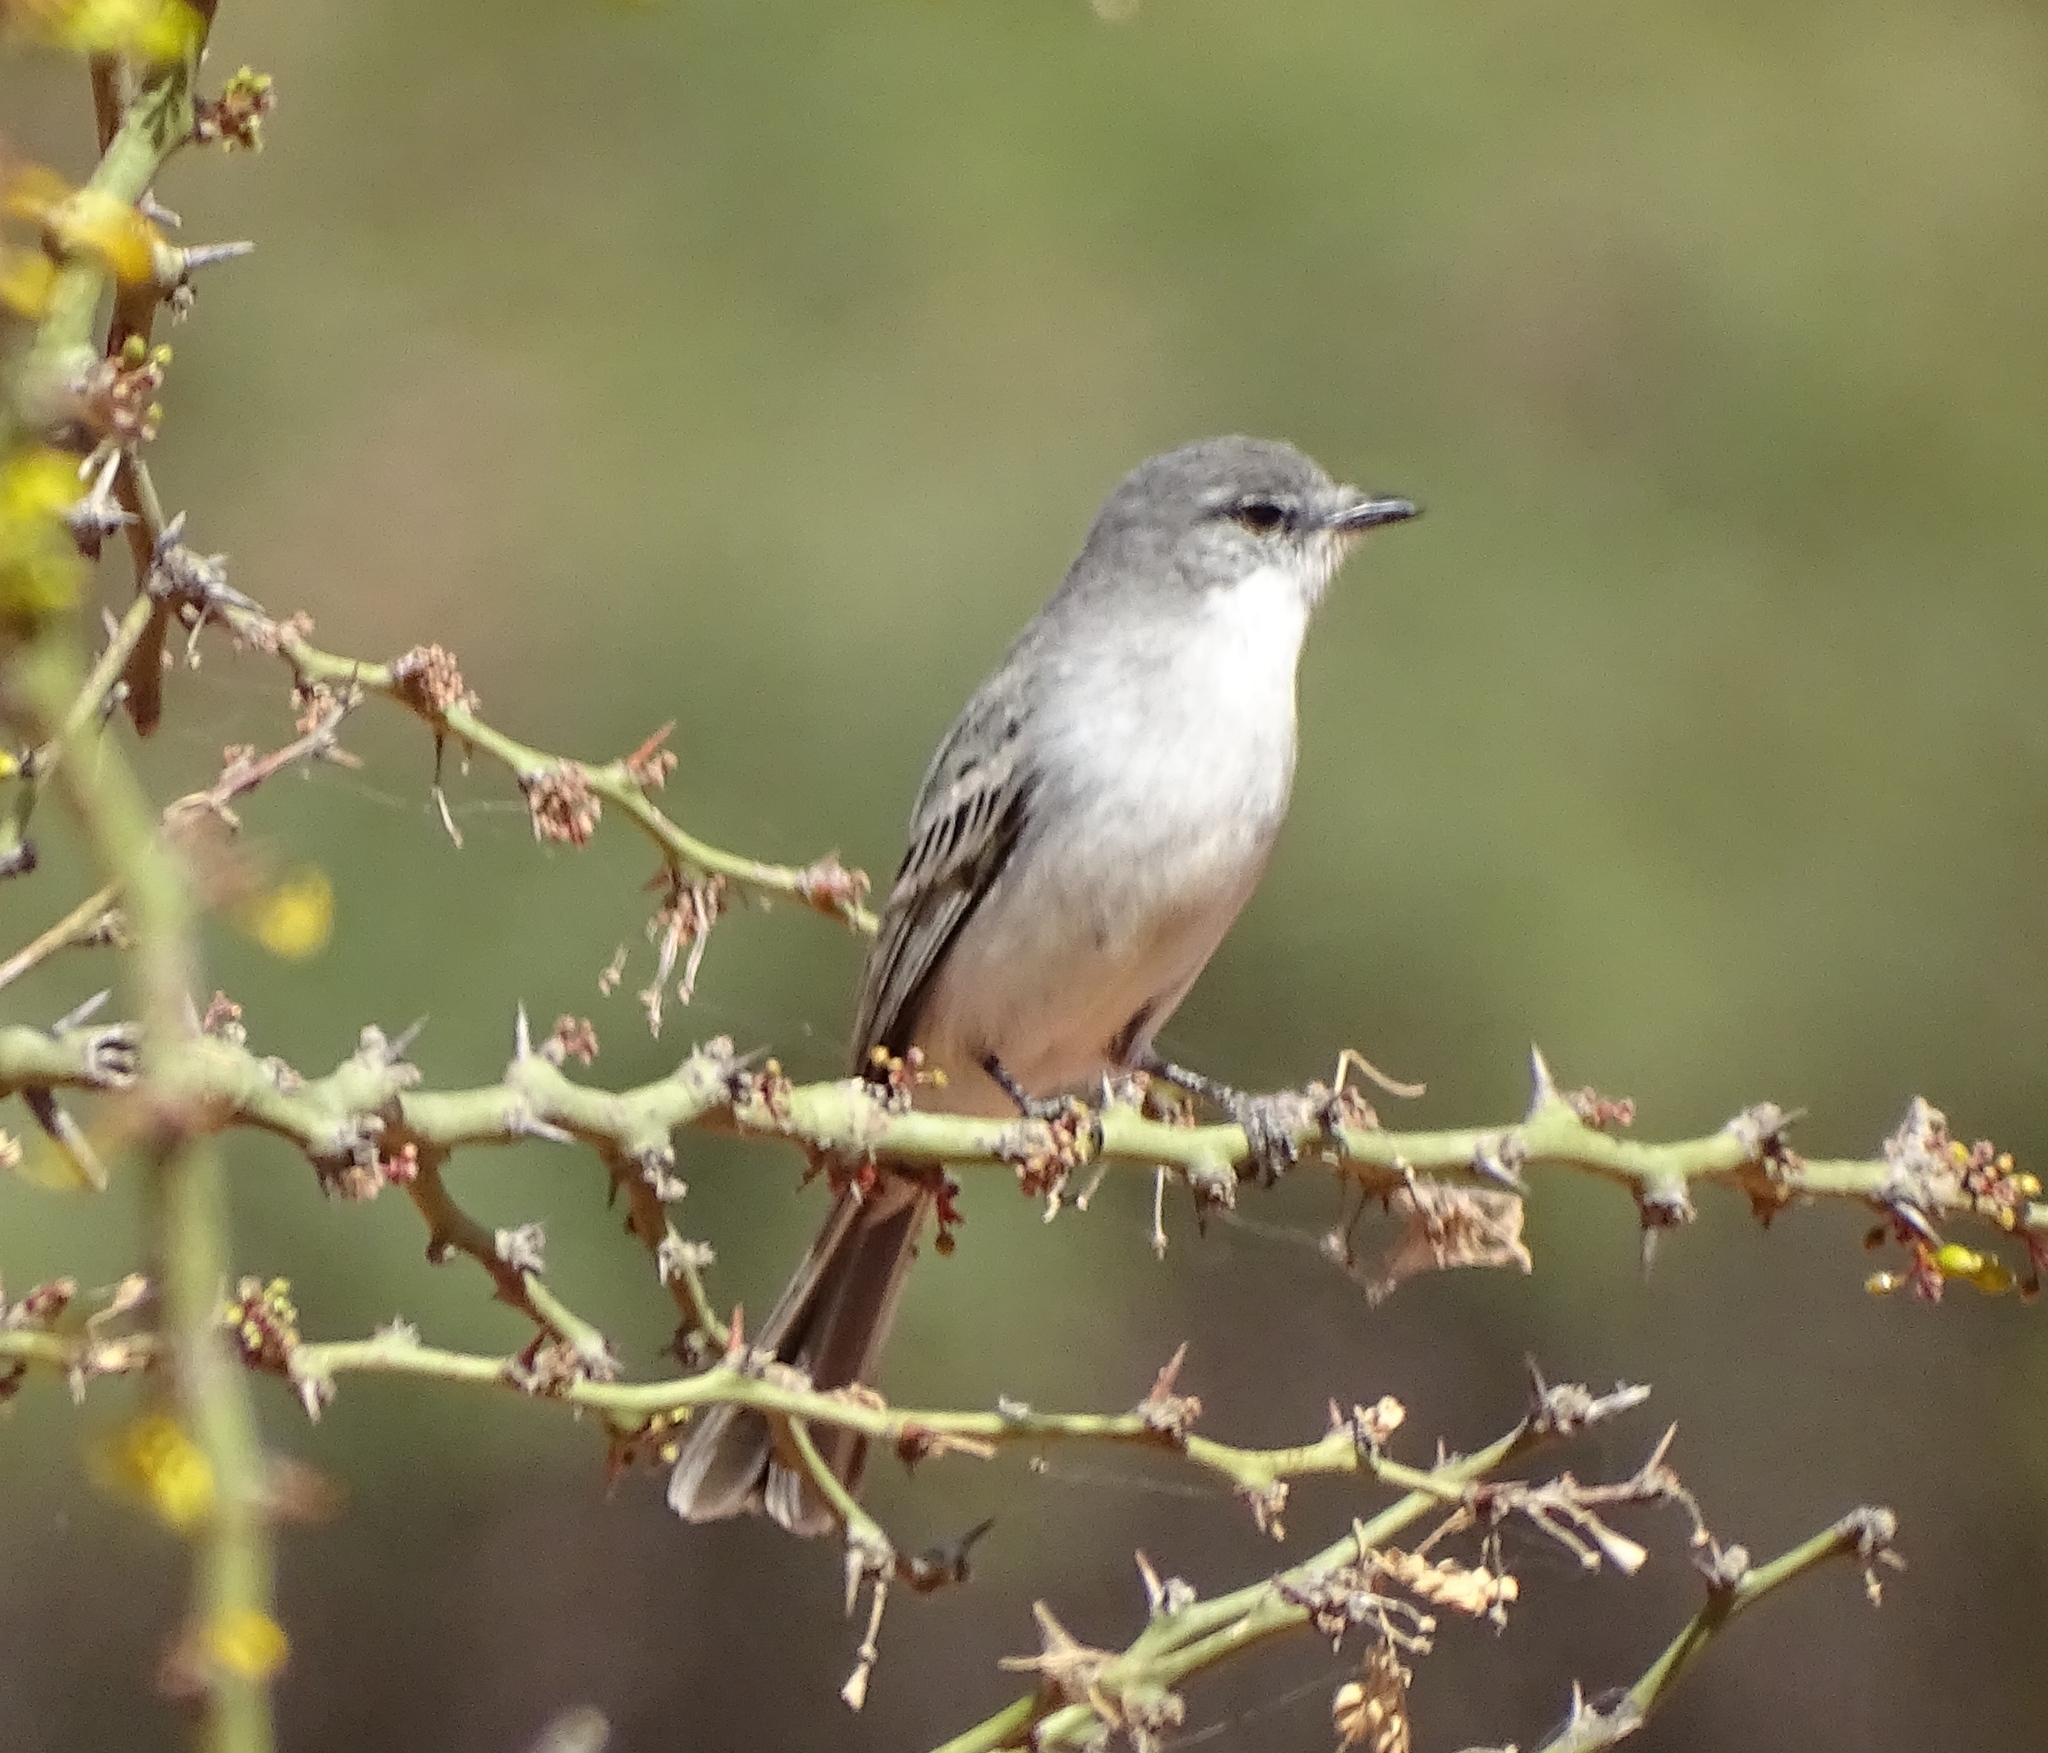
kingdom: Animalia
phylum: Chordata
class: Aves
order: Passeriformes
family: Tyrannidae
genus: Suiriri
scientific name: Suiriri suiriri
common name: Suiriri flycatcher
